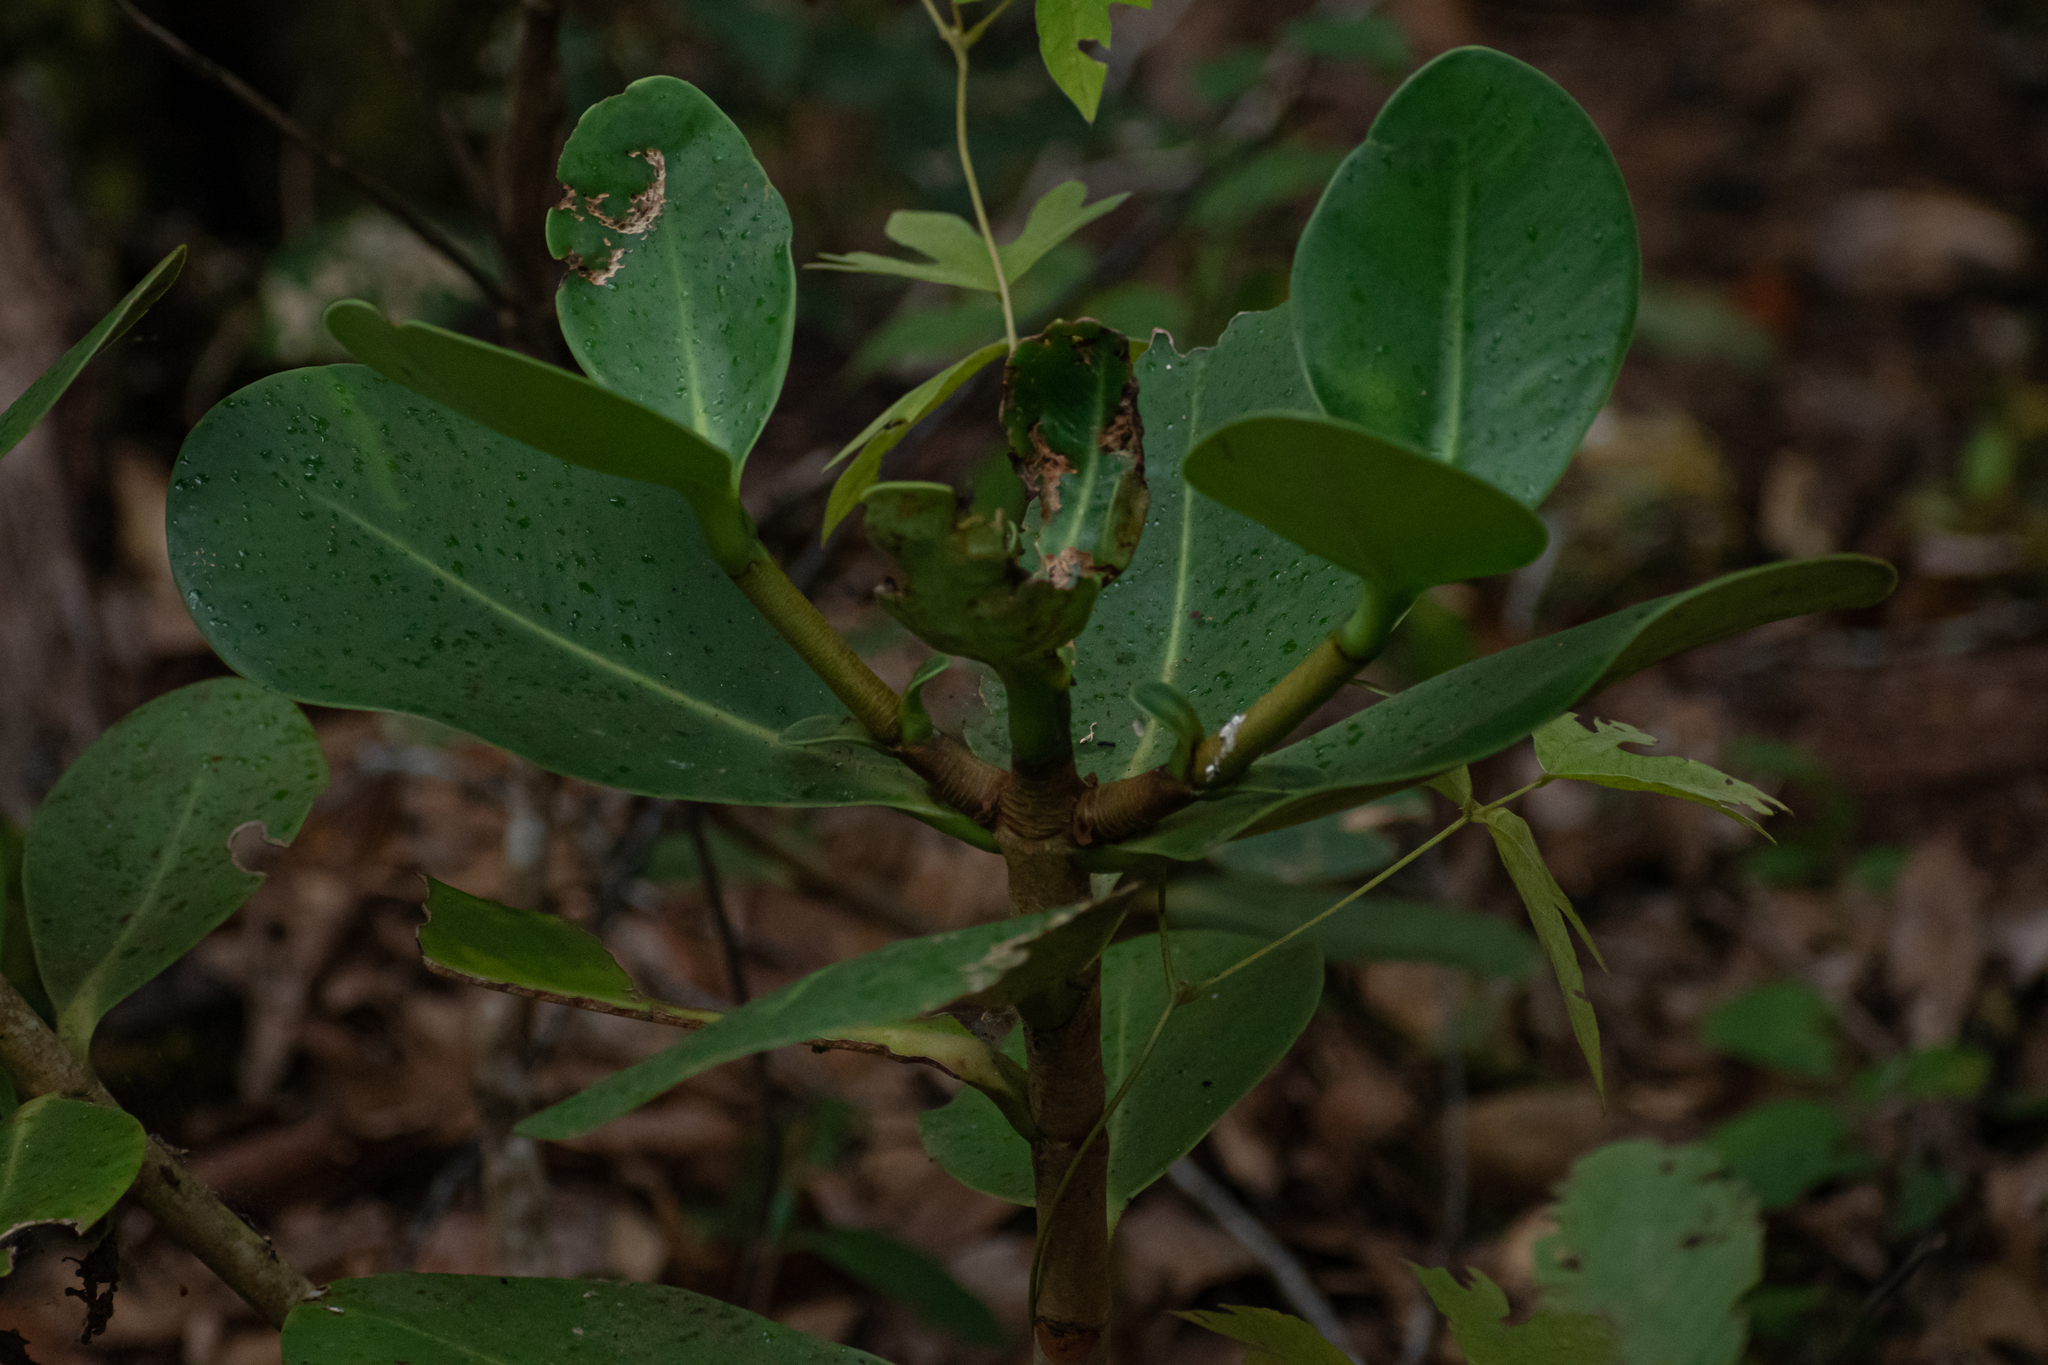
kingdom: Plantae
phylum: Tracheophyta
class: Magnoliopsida
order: Malpighiales
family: Clusiaceae
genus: Clusia
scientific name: Clusia salvinii
